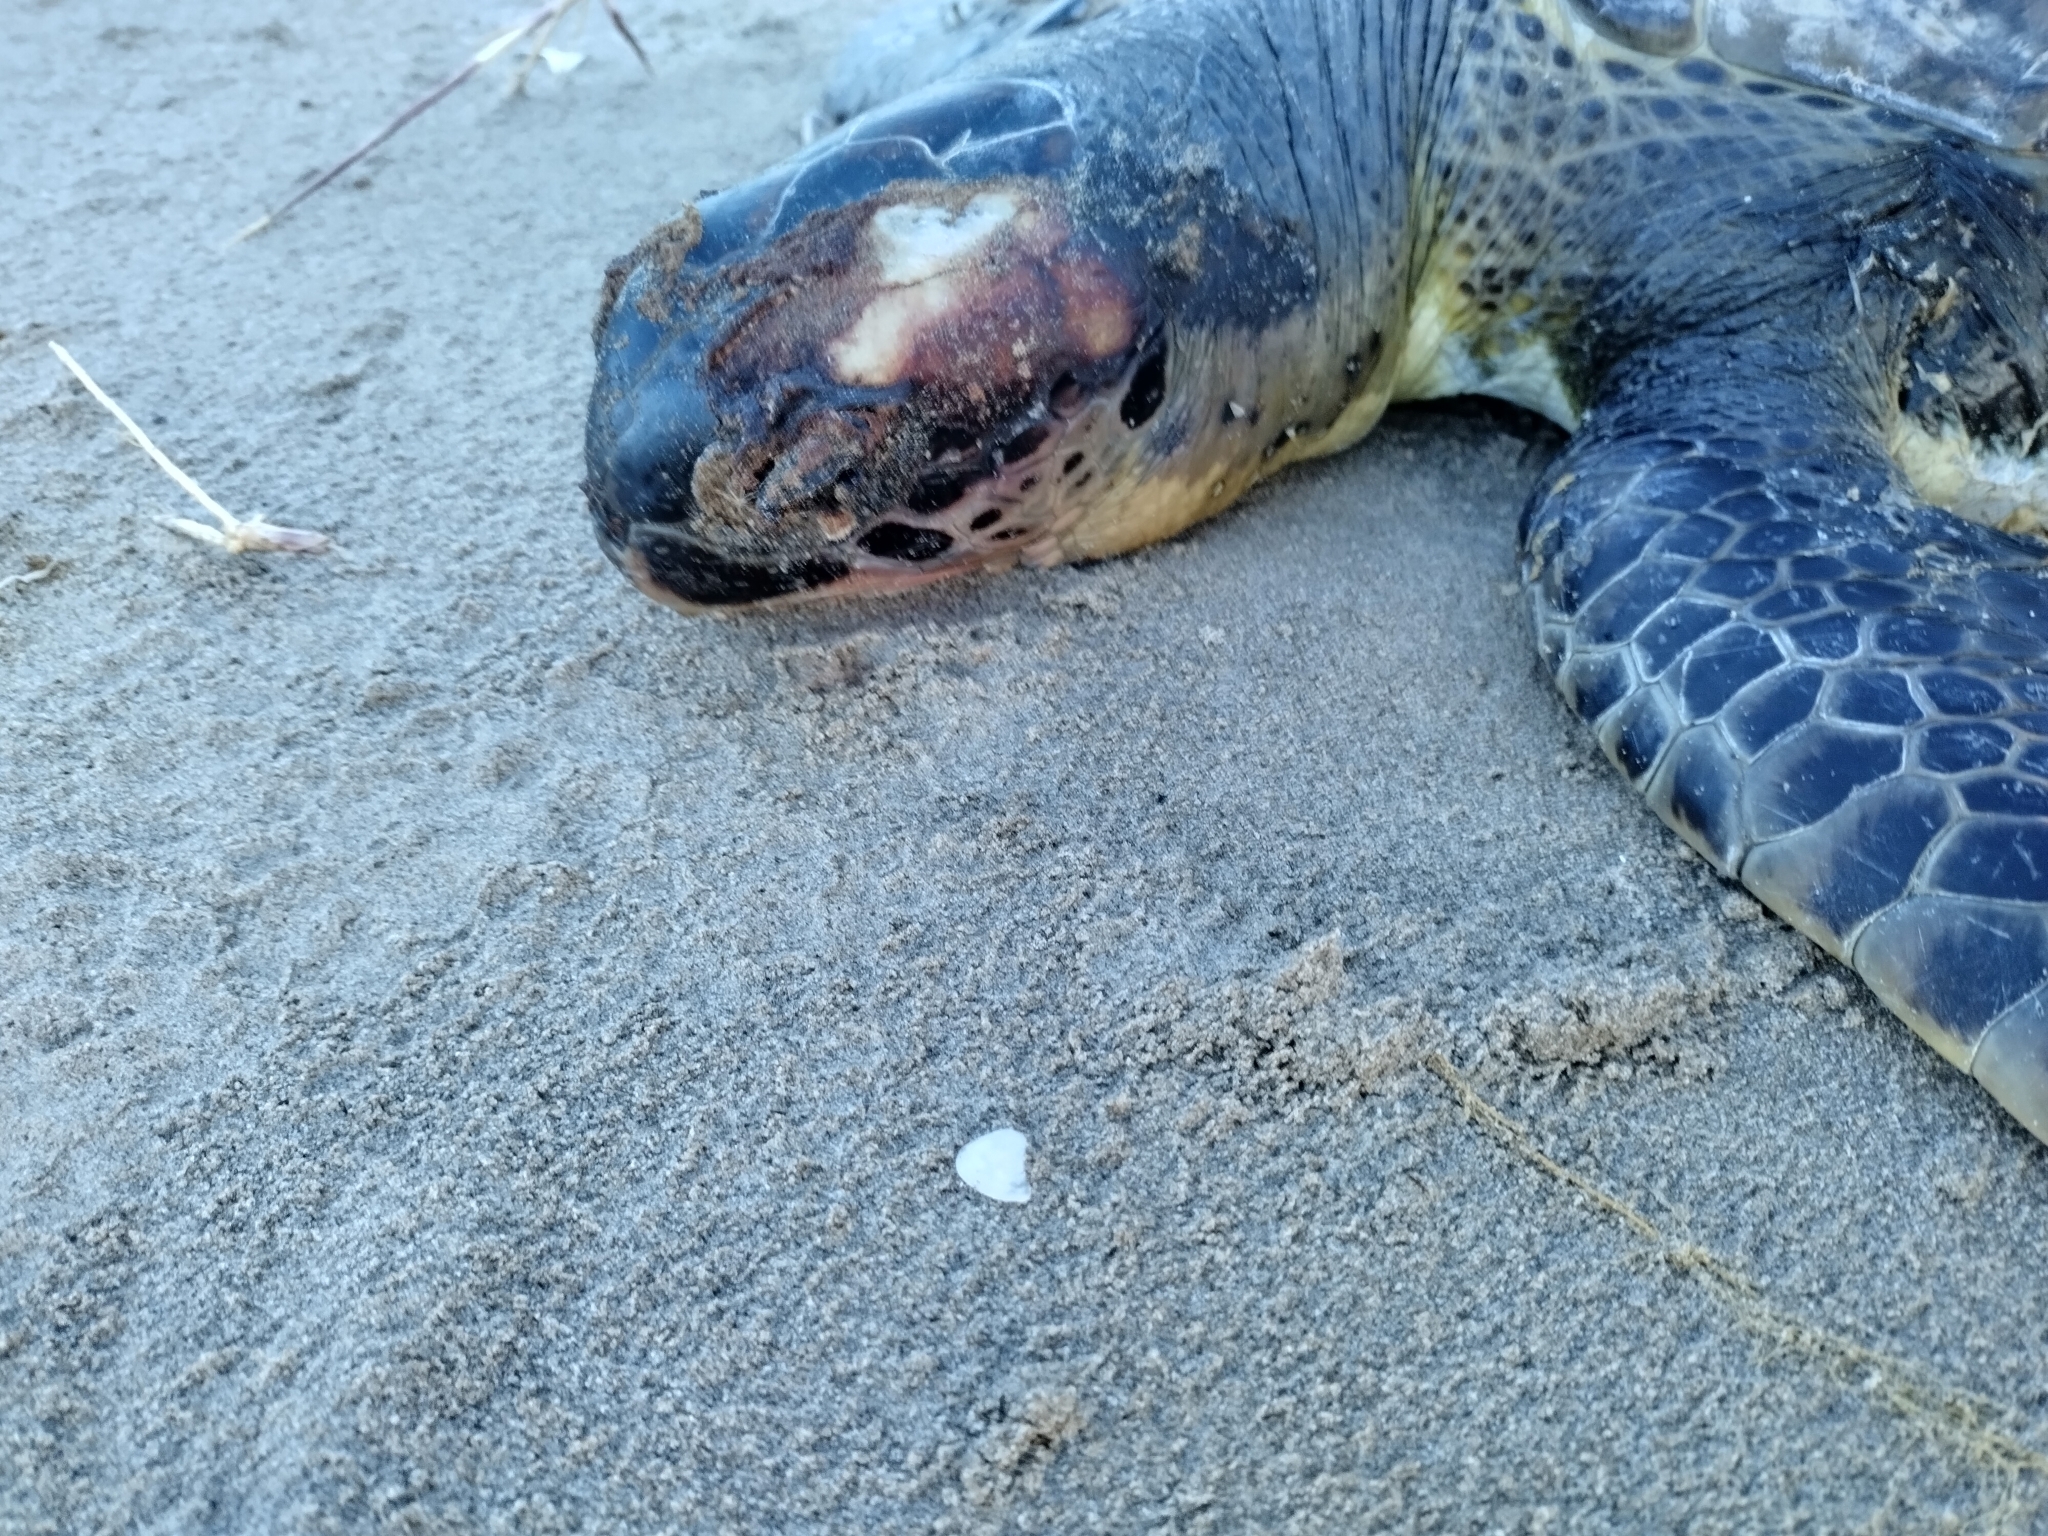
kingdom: Animalia
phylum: Chordata
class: Testudines
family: Cheloniidae
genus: Chelonia
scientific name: Chelonia mydas
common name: Green turtle
